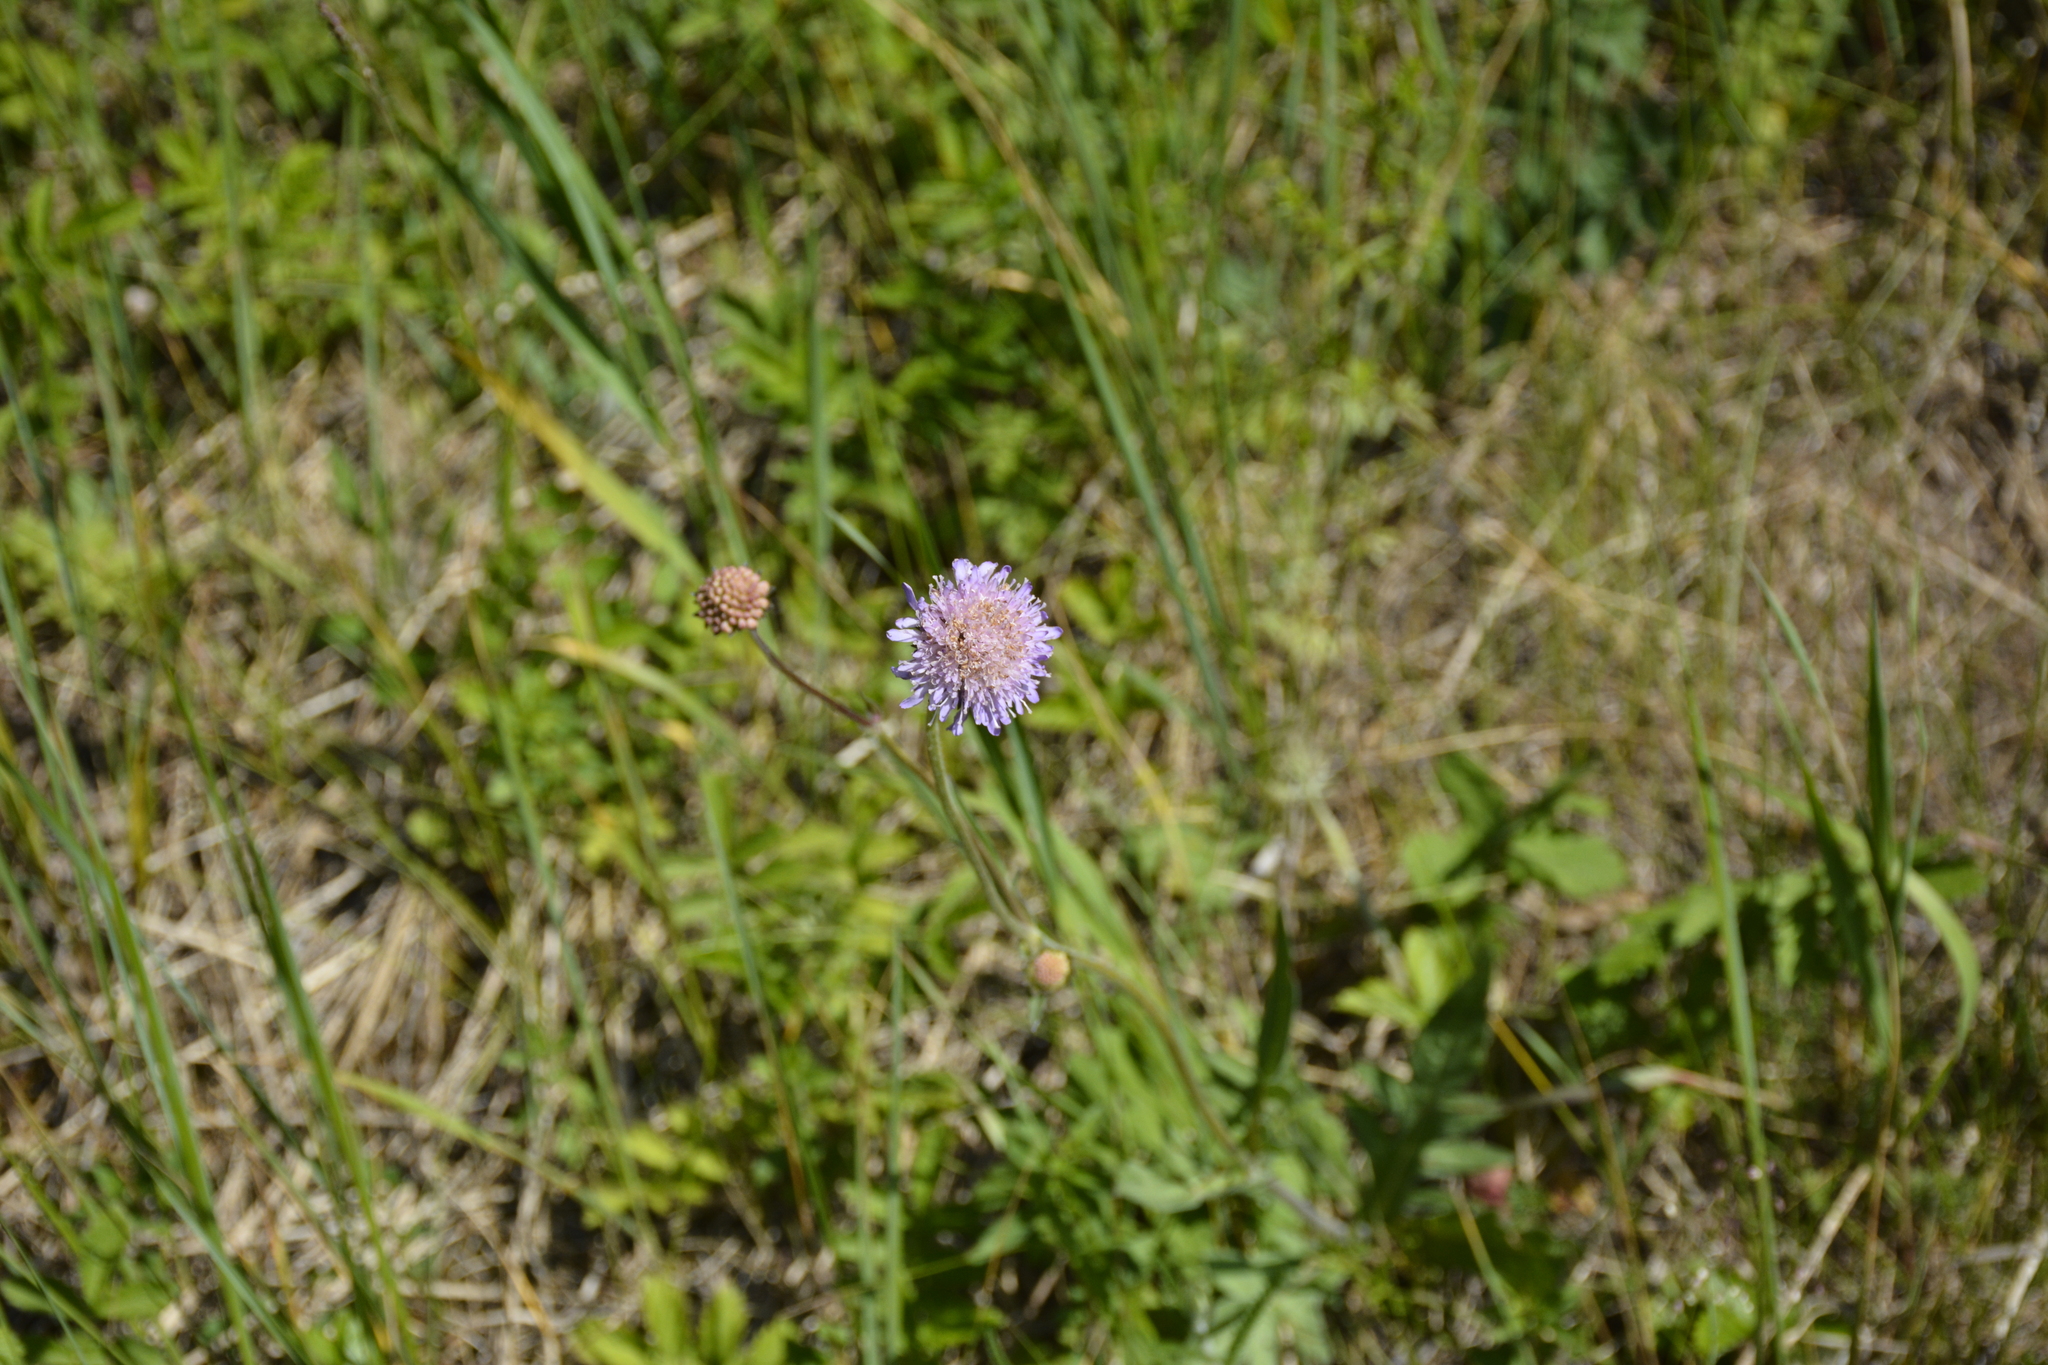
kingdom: Plantae
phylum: Tracheophyta
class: Magnoliopsida
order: Dipsacales
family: Caprifoliaceae
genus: Knautia
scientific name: Knautia arvensis
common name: Field scabiosa
